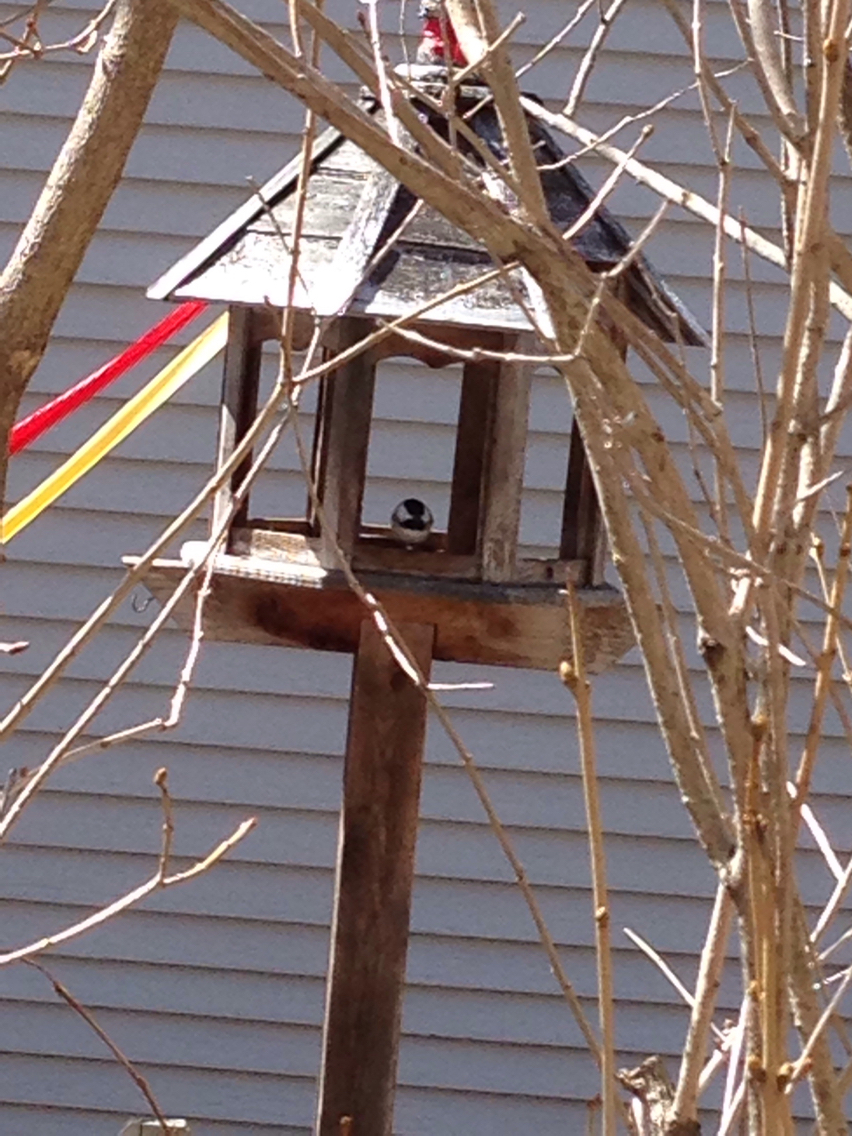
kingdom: Animalia
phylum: Chordata
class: Aves
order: Passeriformes
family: Paridae
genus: Poecile
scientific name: Poecile atricapillus
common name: Black-capped chickadee
